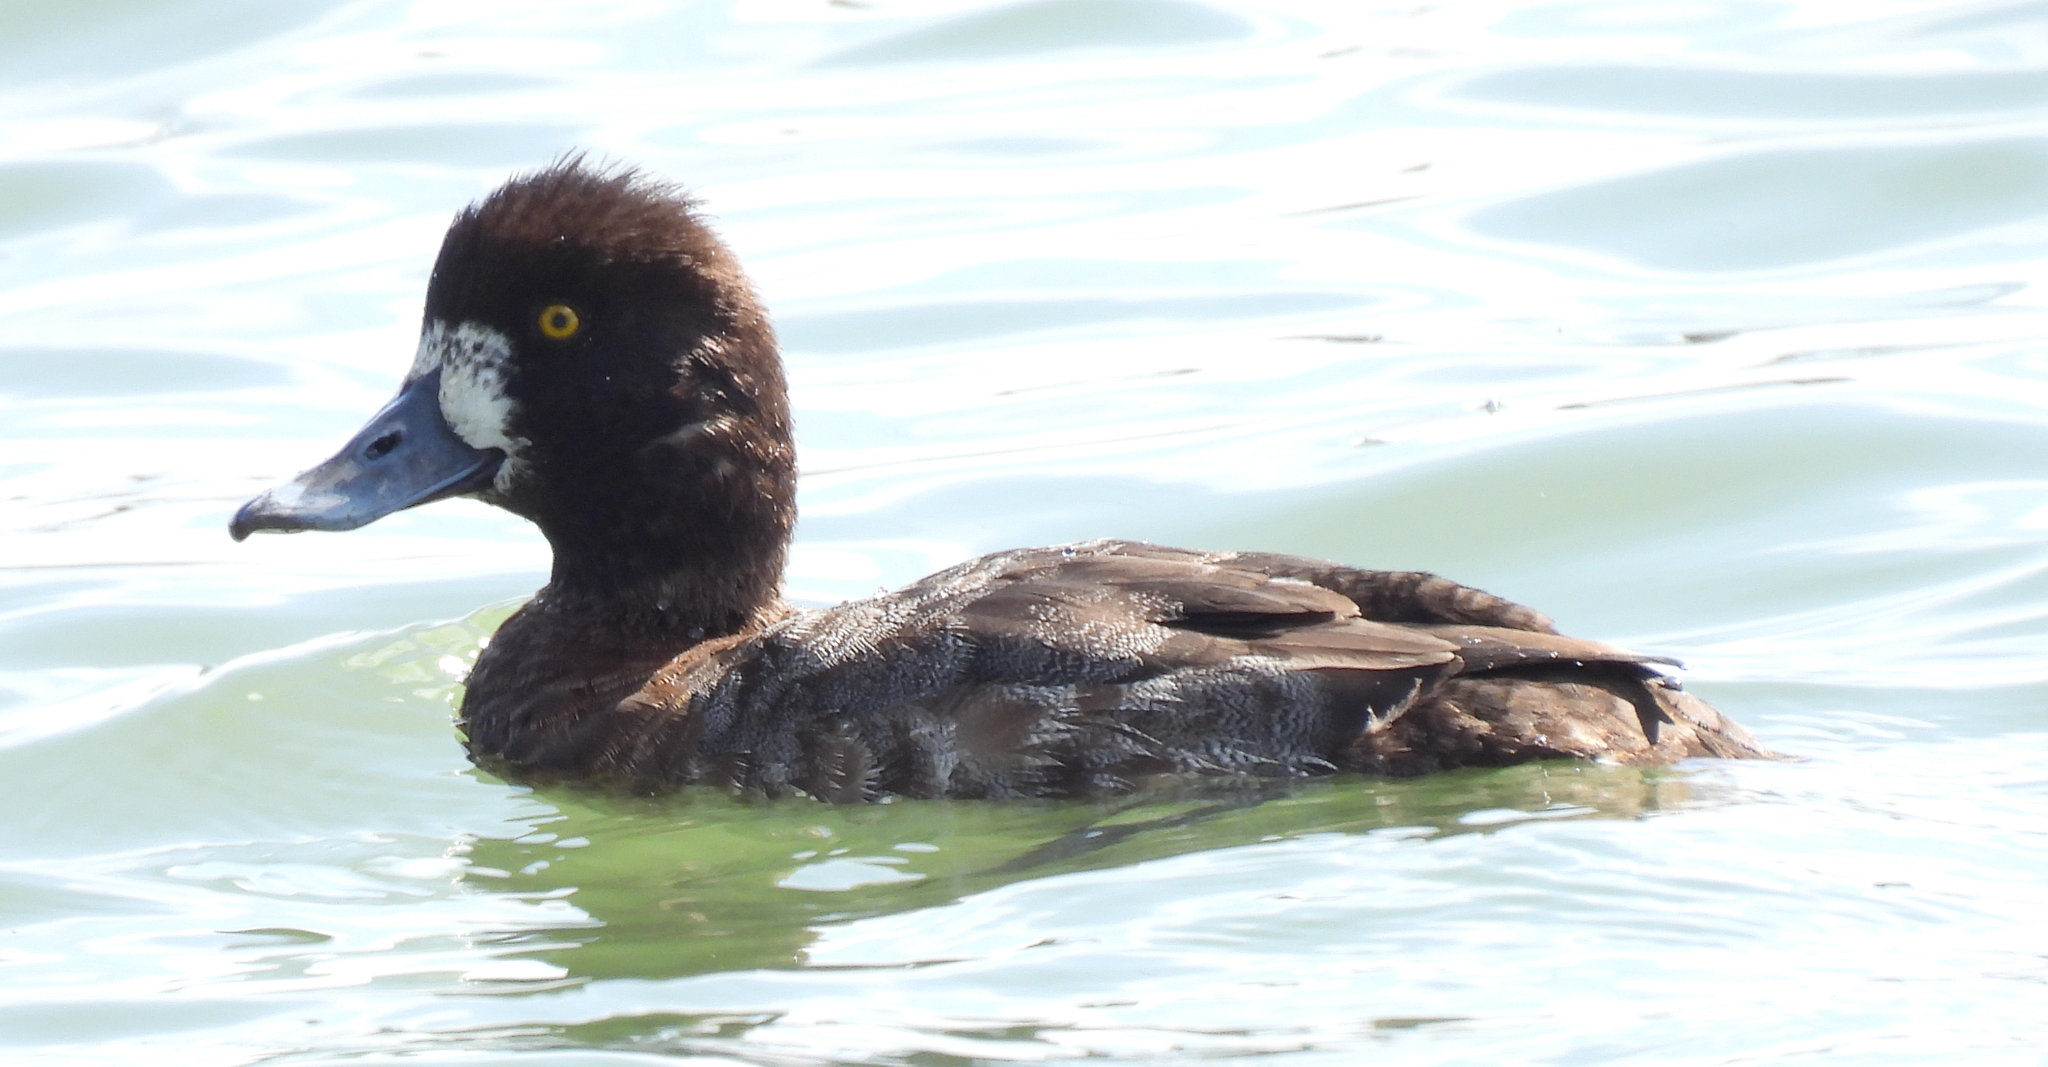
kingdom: Animalia
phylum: Chordata
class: Aves
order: Anseriformes
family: Anatidae
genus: Aythya
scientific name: Aythya affinis
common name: Lesser scaup
